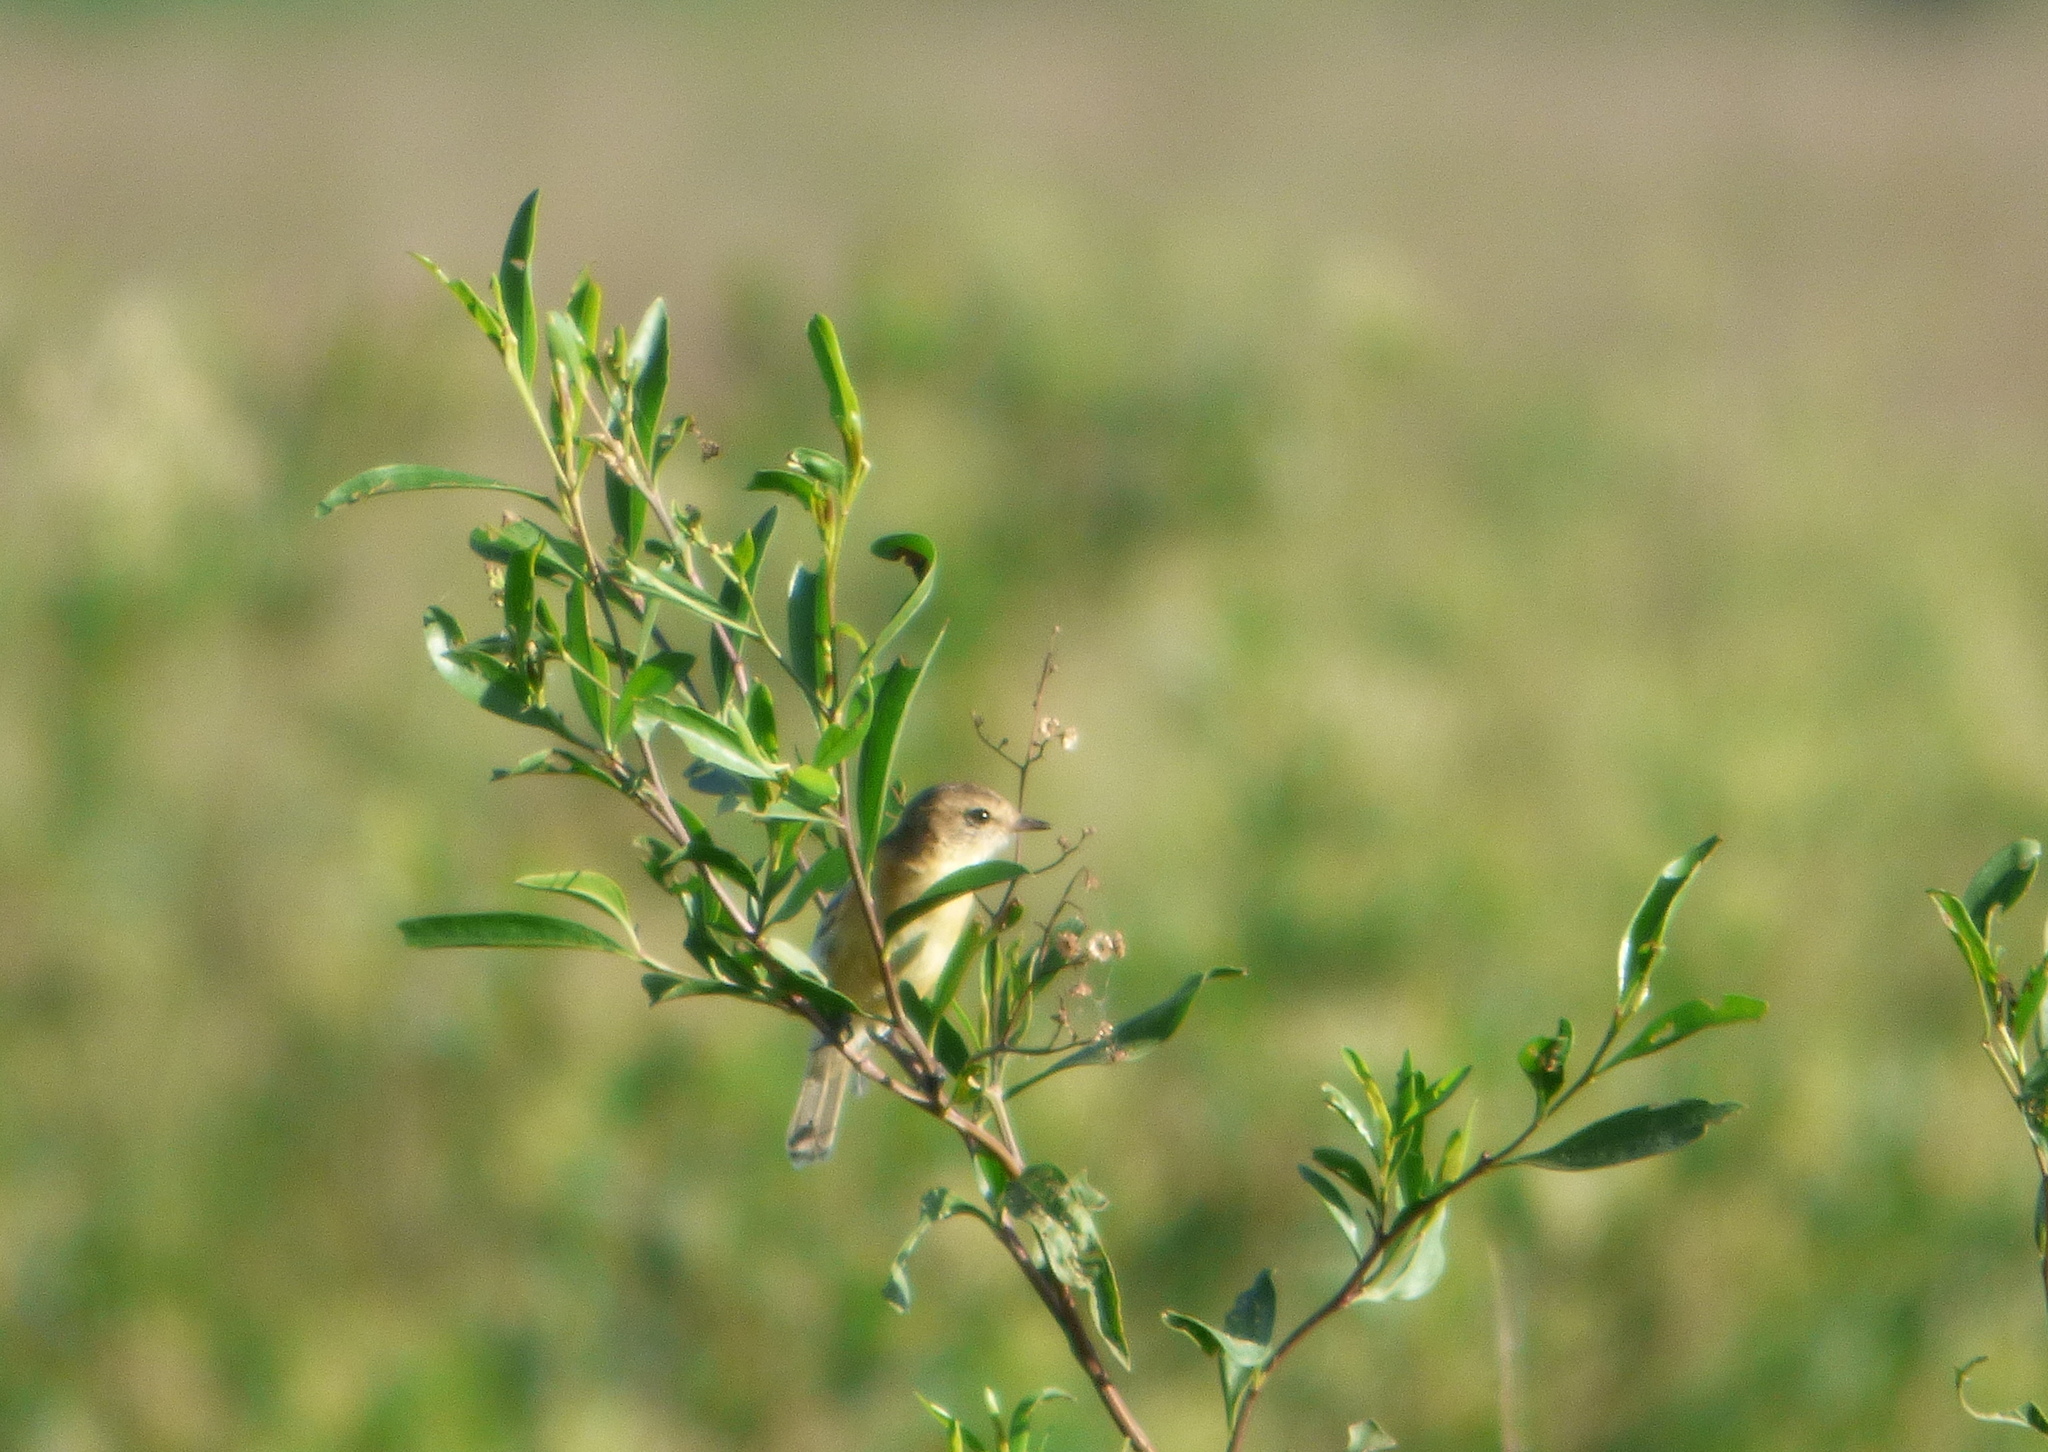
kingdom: Animalia
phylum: Chordata
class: Aves
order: Passeriformes
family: Tyrannidae
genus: Polystictus
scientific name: Polystictus pectoralis
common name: Bearded tachuri
